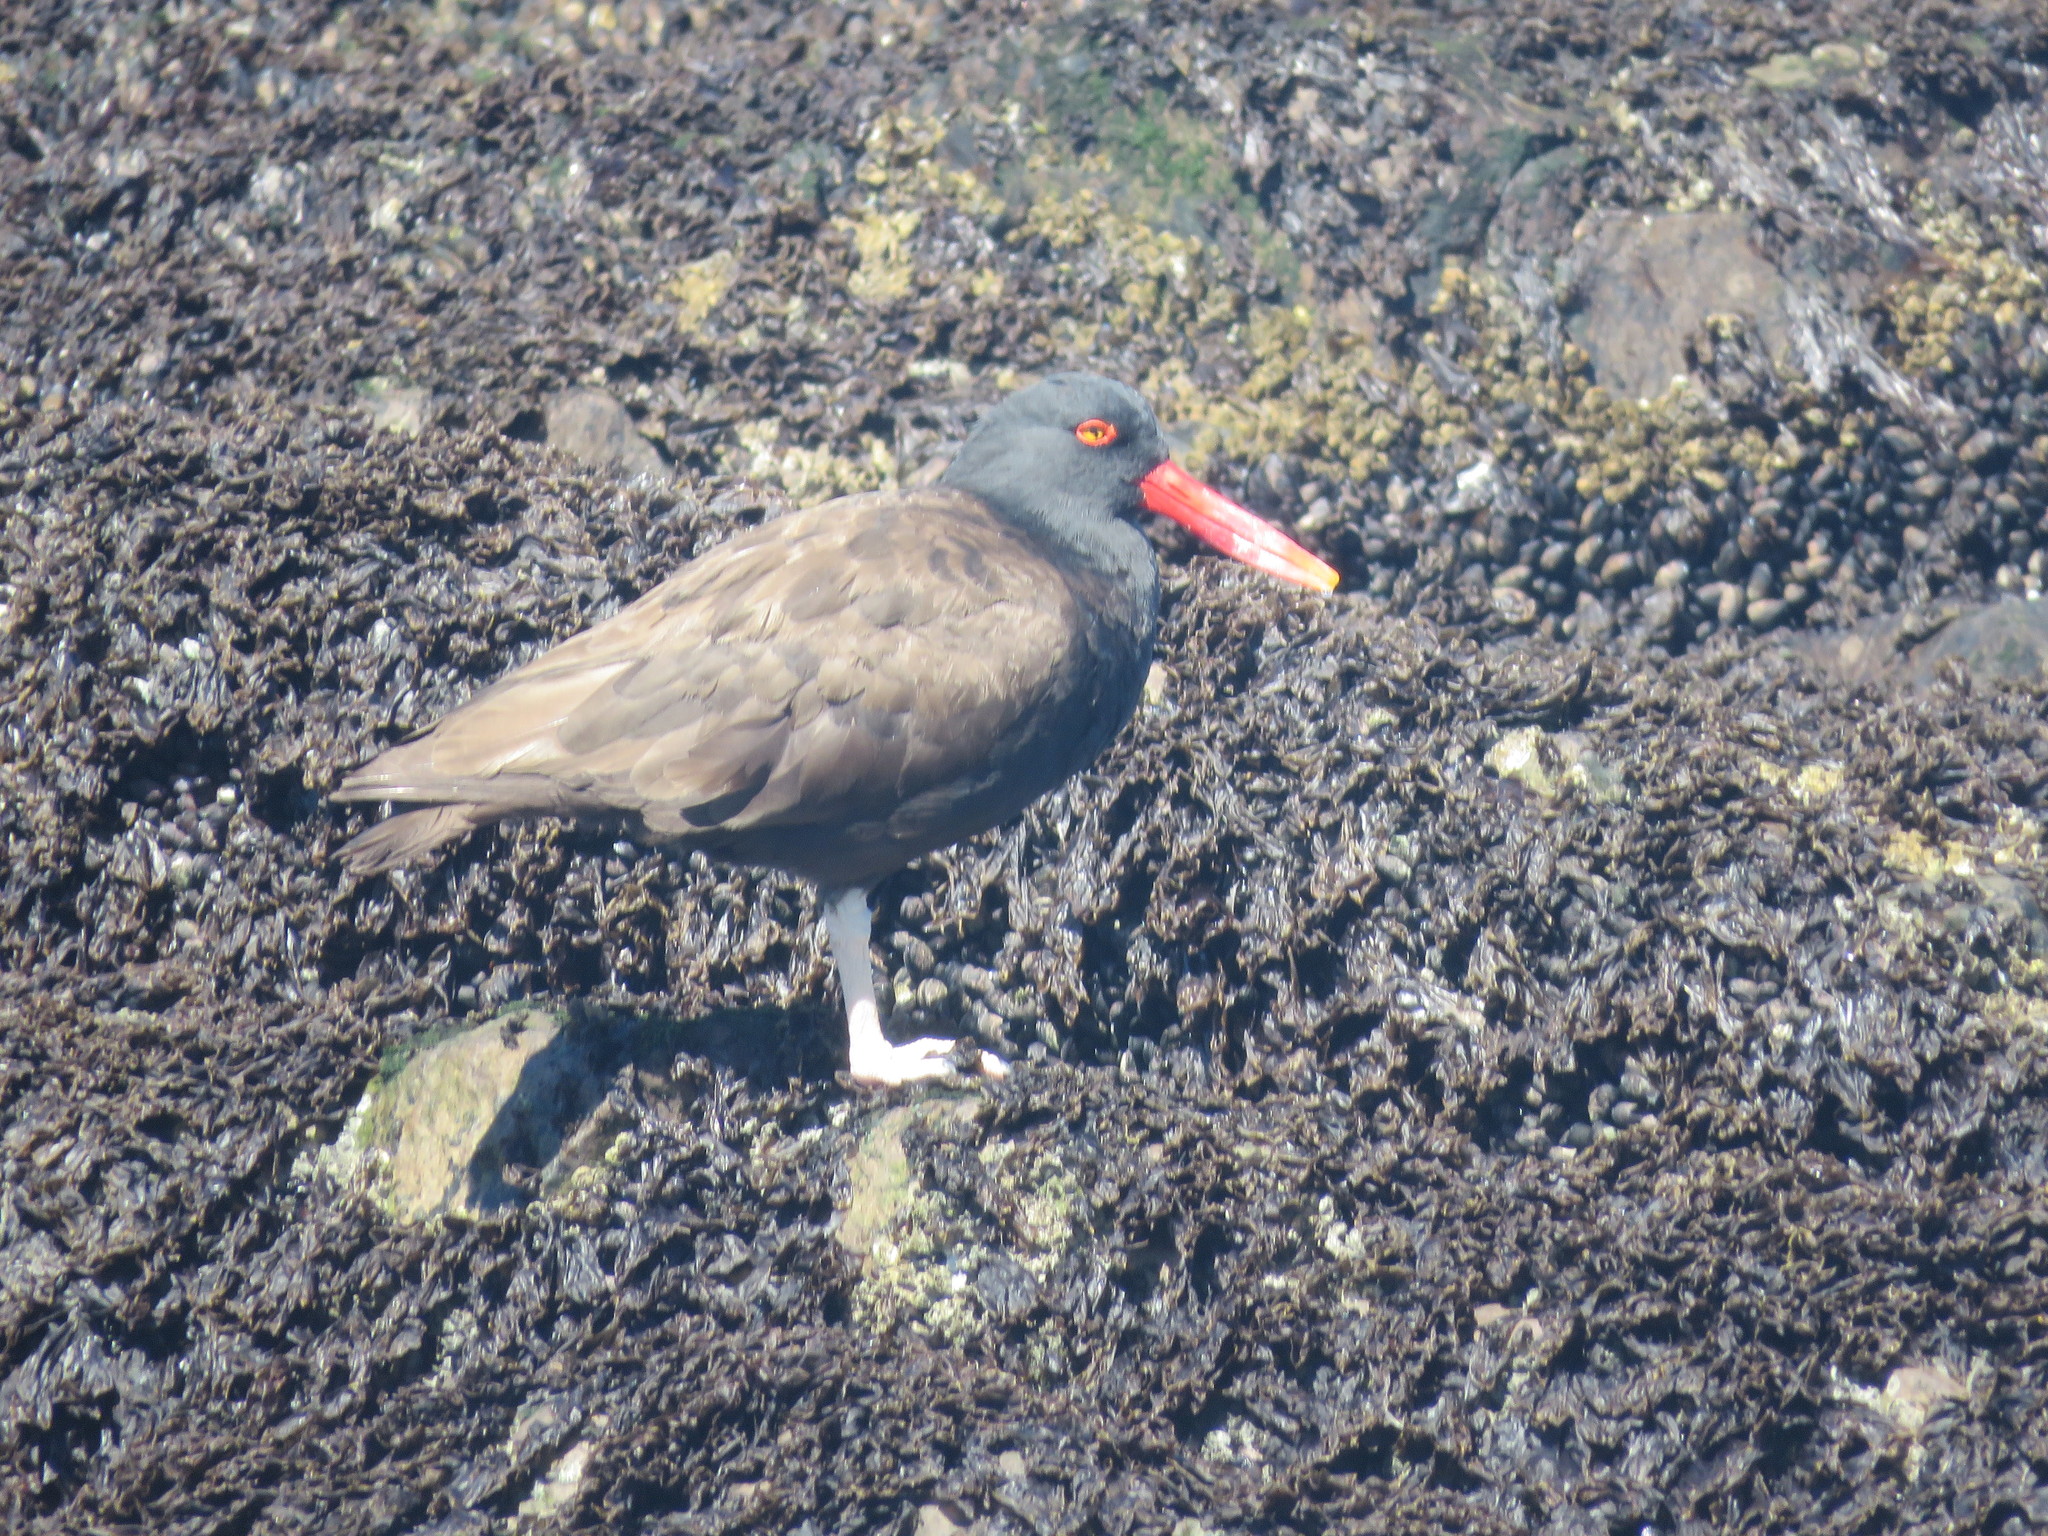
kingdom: Animalia
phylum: Chordata
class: Aves
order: Charadriiformes
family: Haematopodidae
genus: Haematopus
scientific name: Haematopus ater
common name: Blackish oystercatcher
